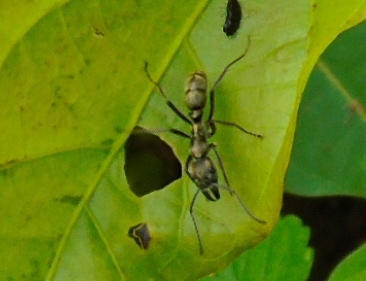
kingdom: Animalia
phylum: Arthropoda
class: Insecta
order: Hymenoptera
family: Formicidae
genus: Pachycondyla
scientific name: Pachycondyla villosa
